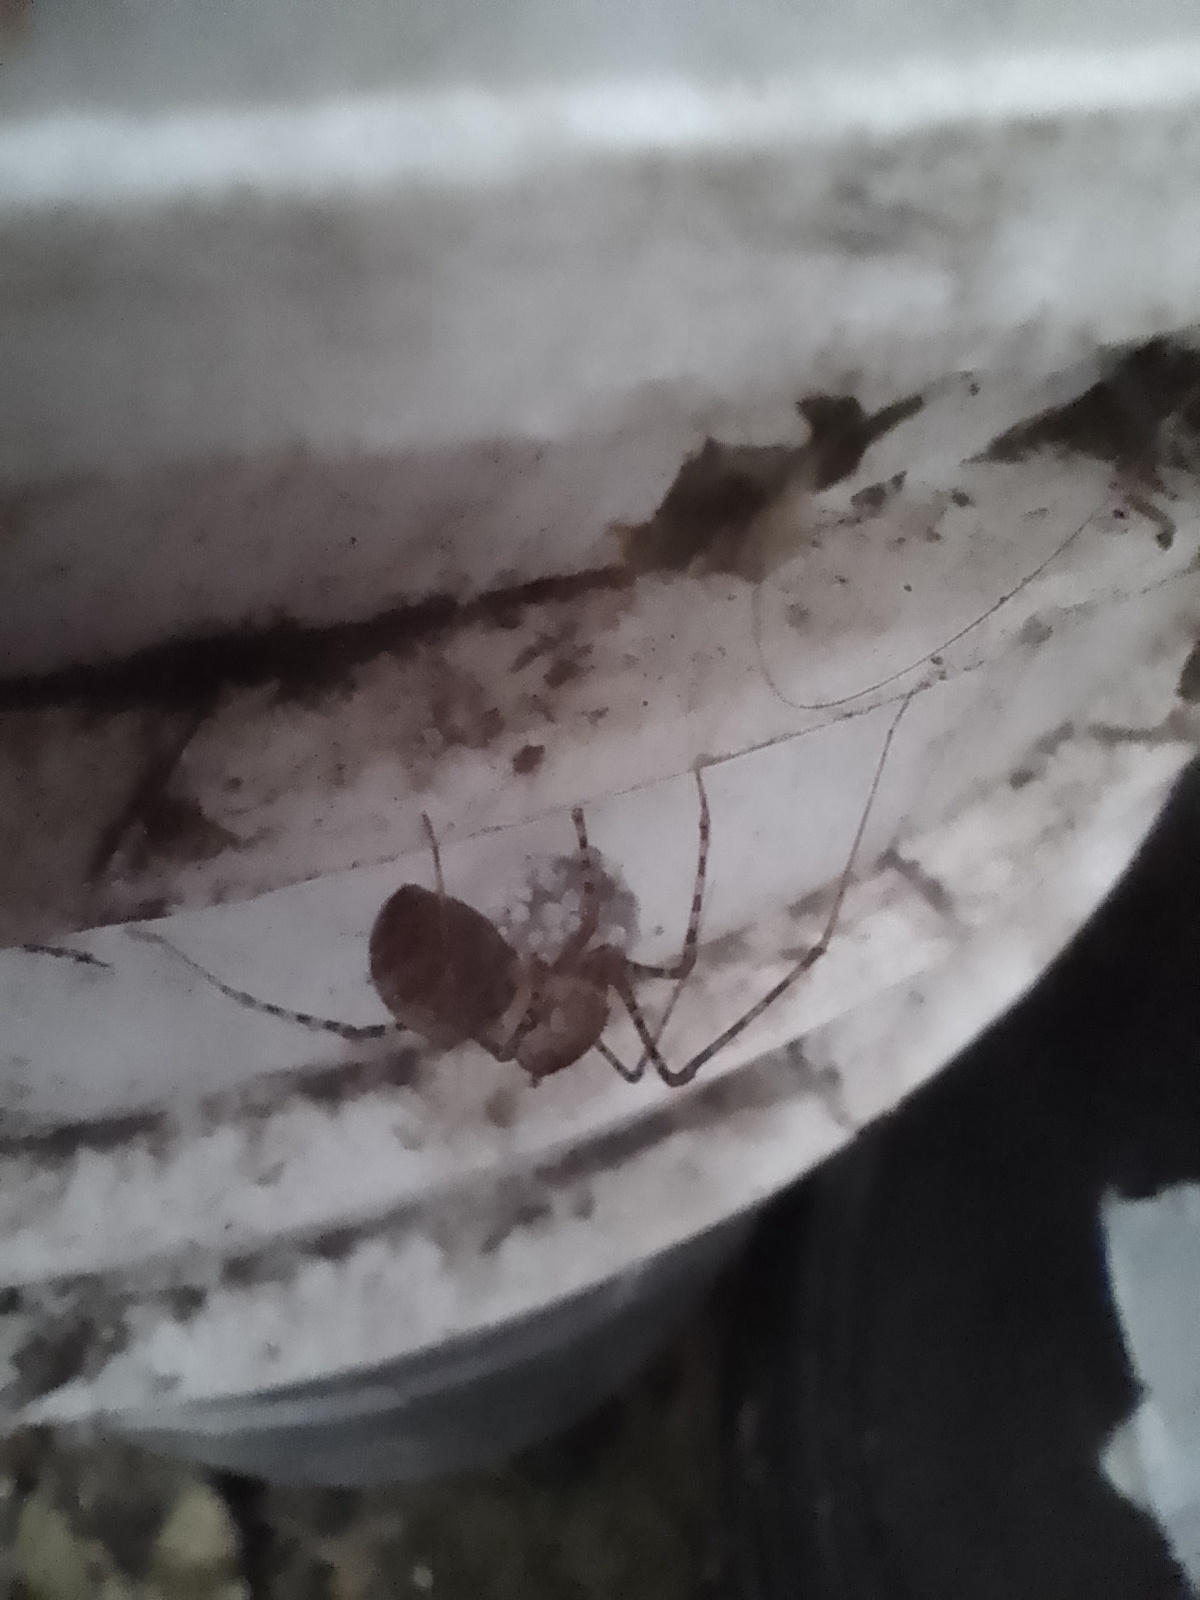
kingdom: Animalia
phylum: Arthropoda
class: Arachnida
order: Araneae
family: Scytodidae
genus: Scytodes
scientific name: Scytodes globula
